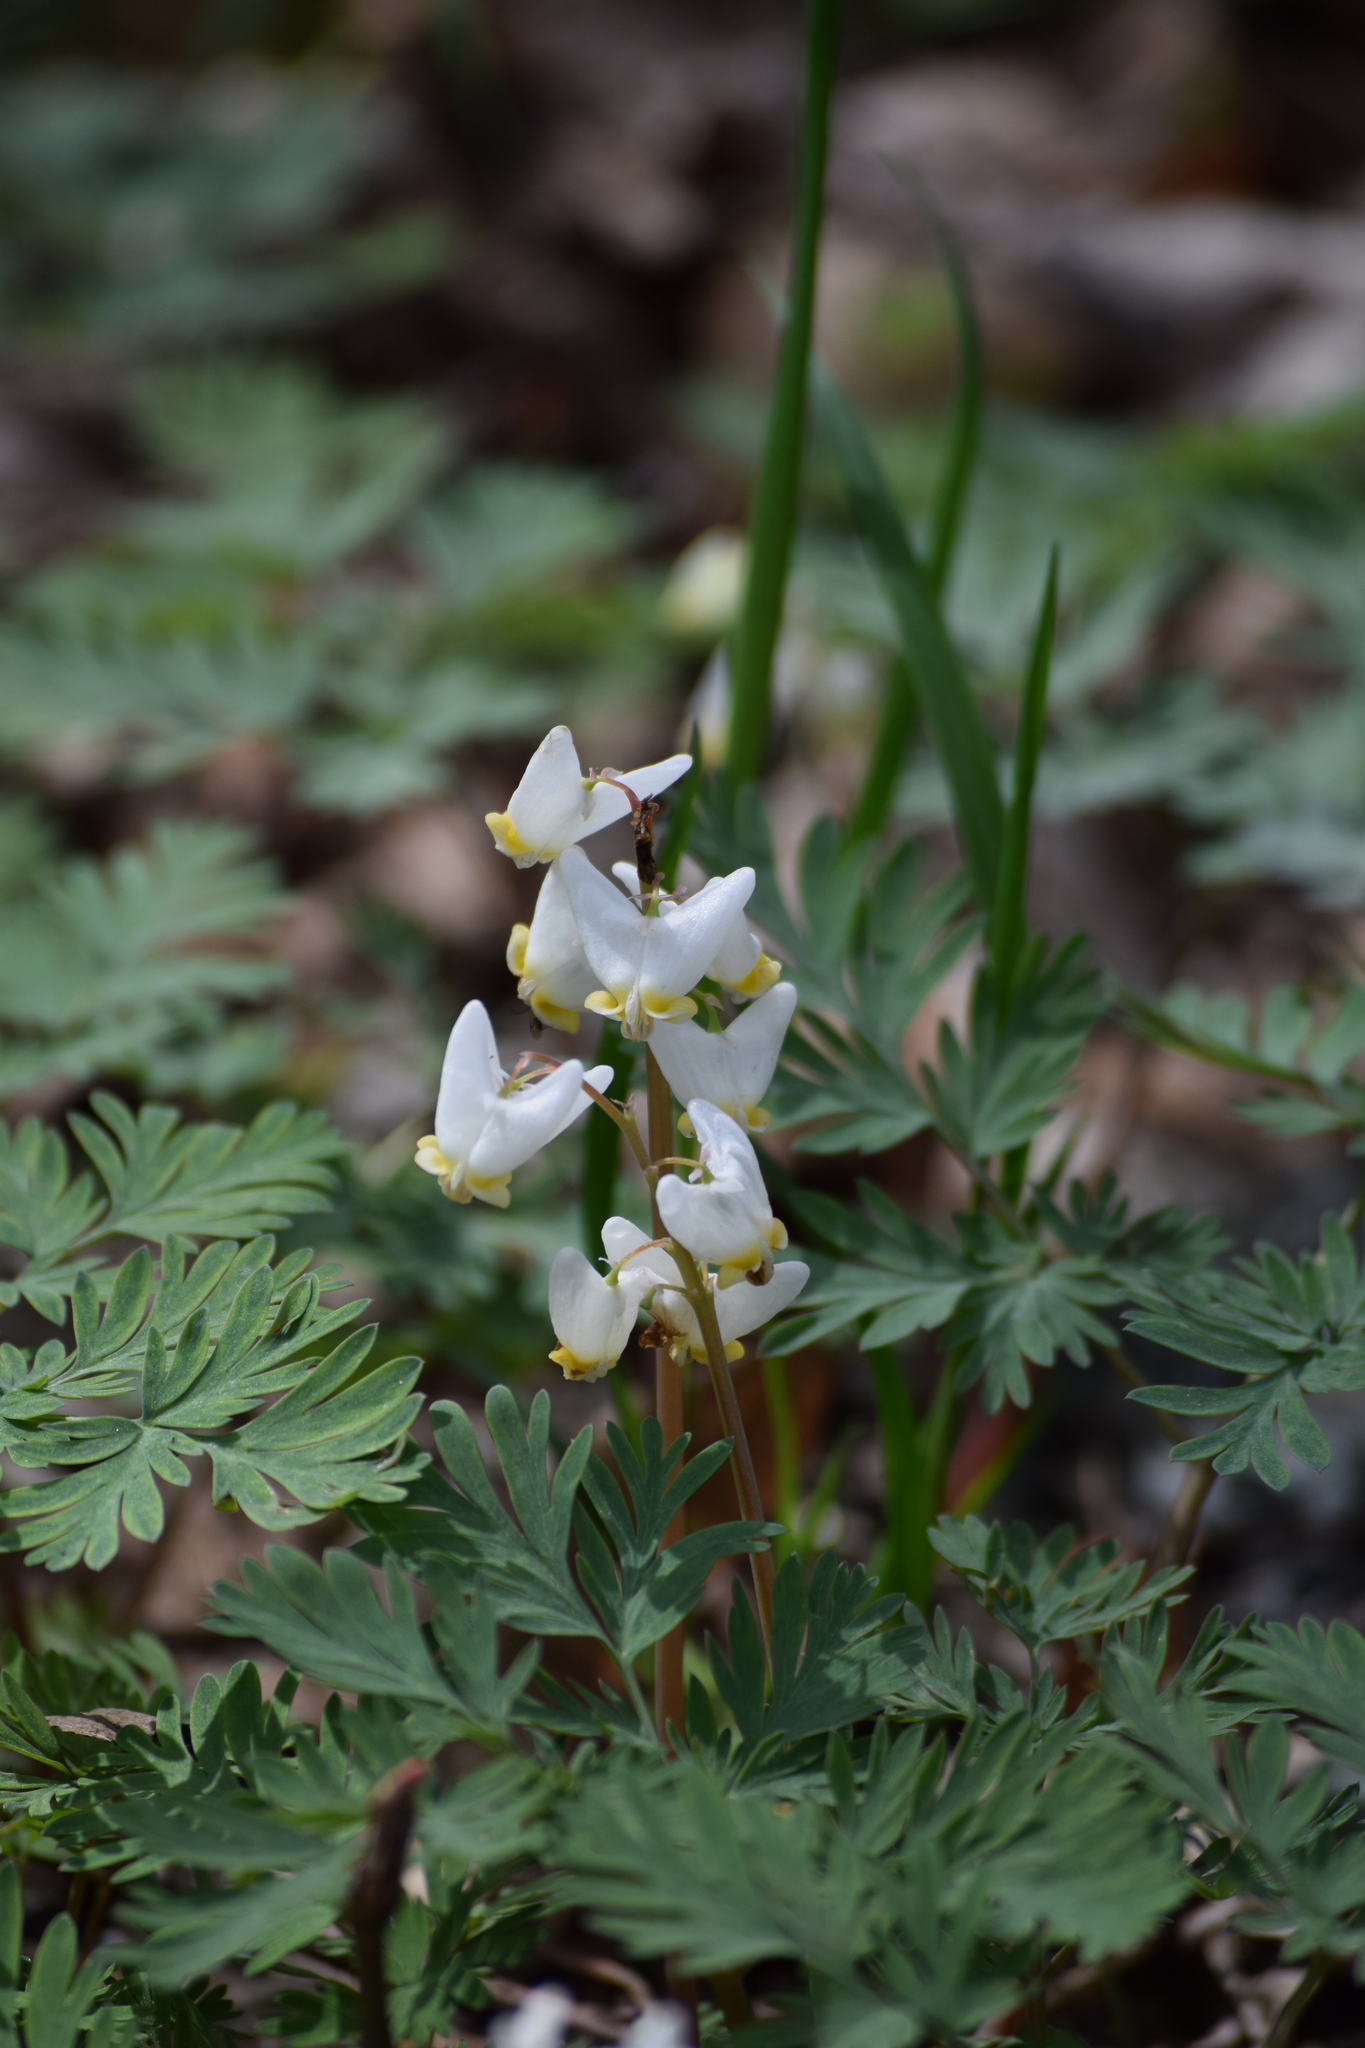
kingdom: Plantae
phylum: Tracheophyta
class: Magnoliopsida
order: Ranunculales
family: Papaveraceae
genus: Dicentra
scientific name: Dicentra cucullaria
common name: Dutchman's breeches
